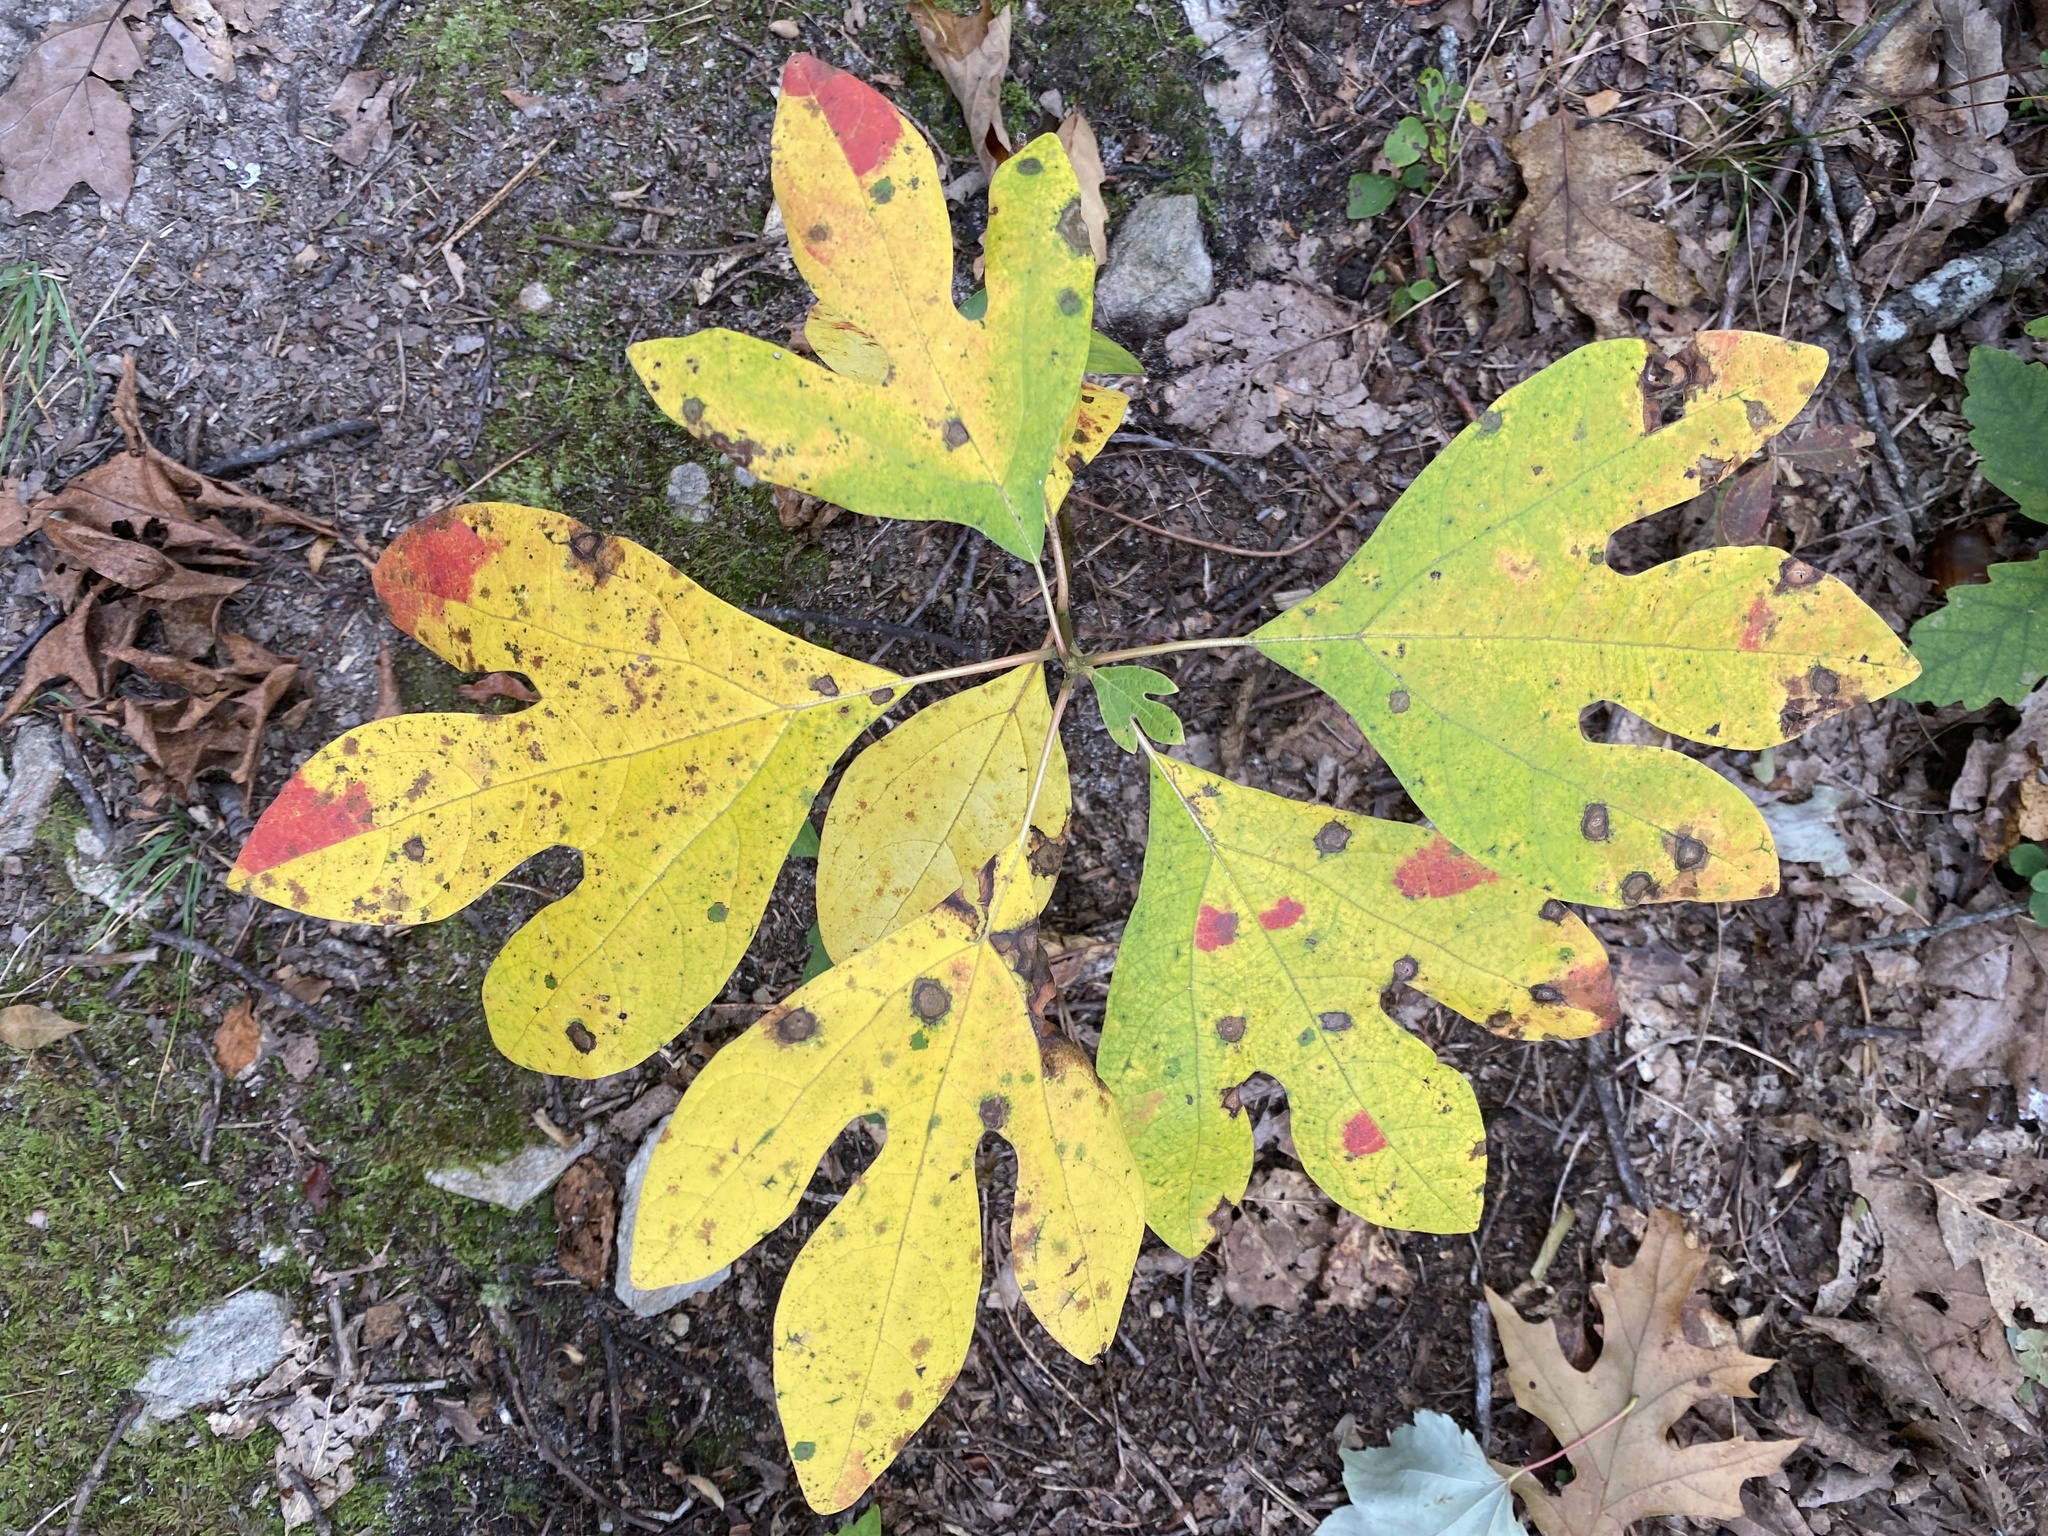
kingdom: Plantae
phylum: Tracheophyta
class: Magnoliopsida
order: Laurales
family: Lauraceae
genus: Sassafras
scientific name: Sassafras albidum
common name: Sassafras
